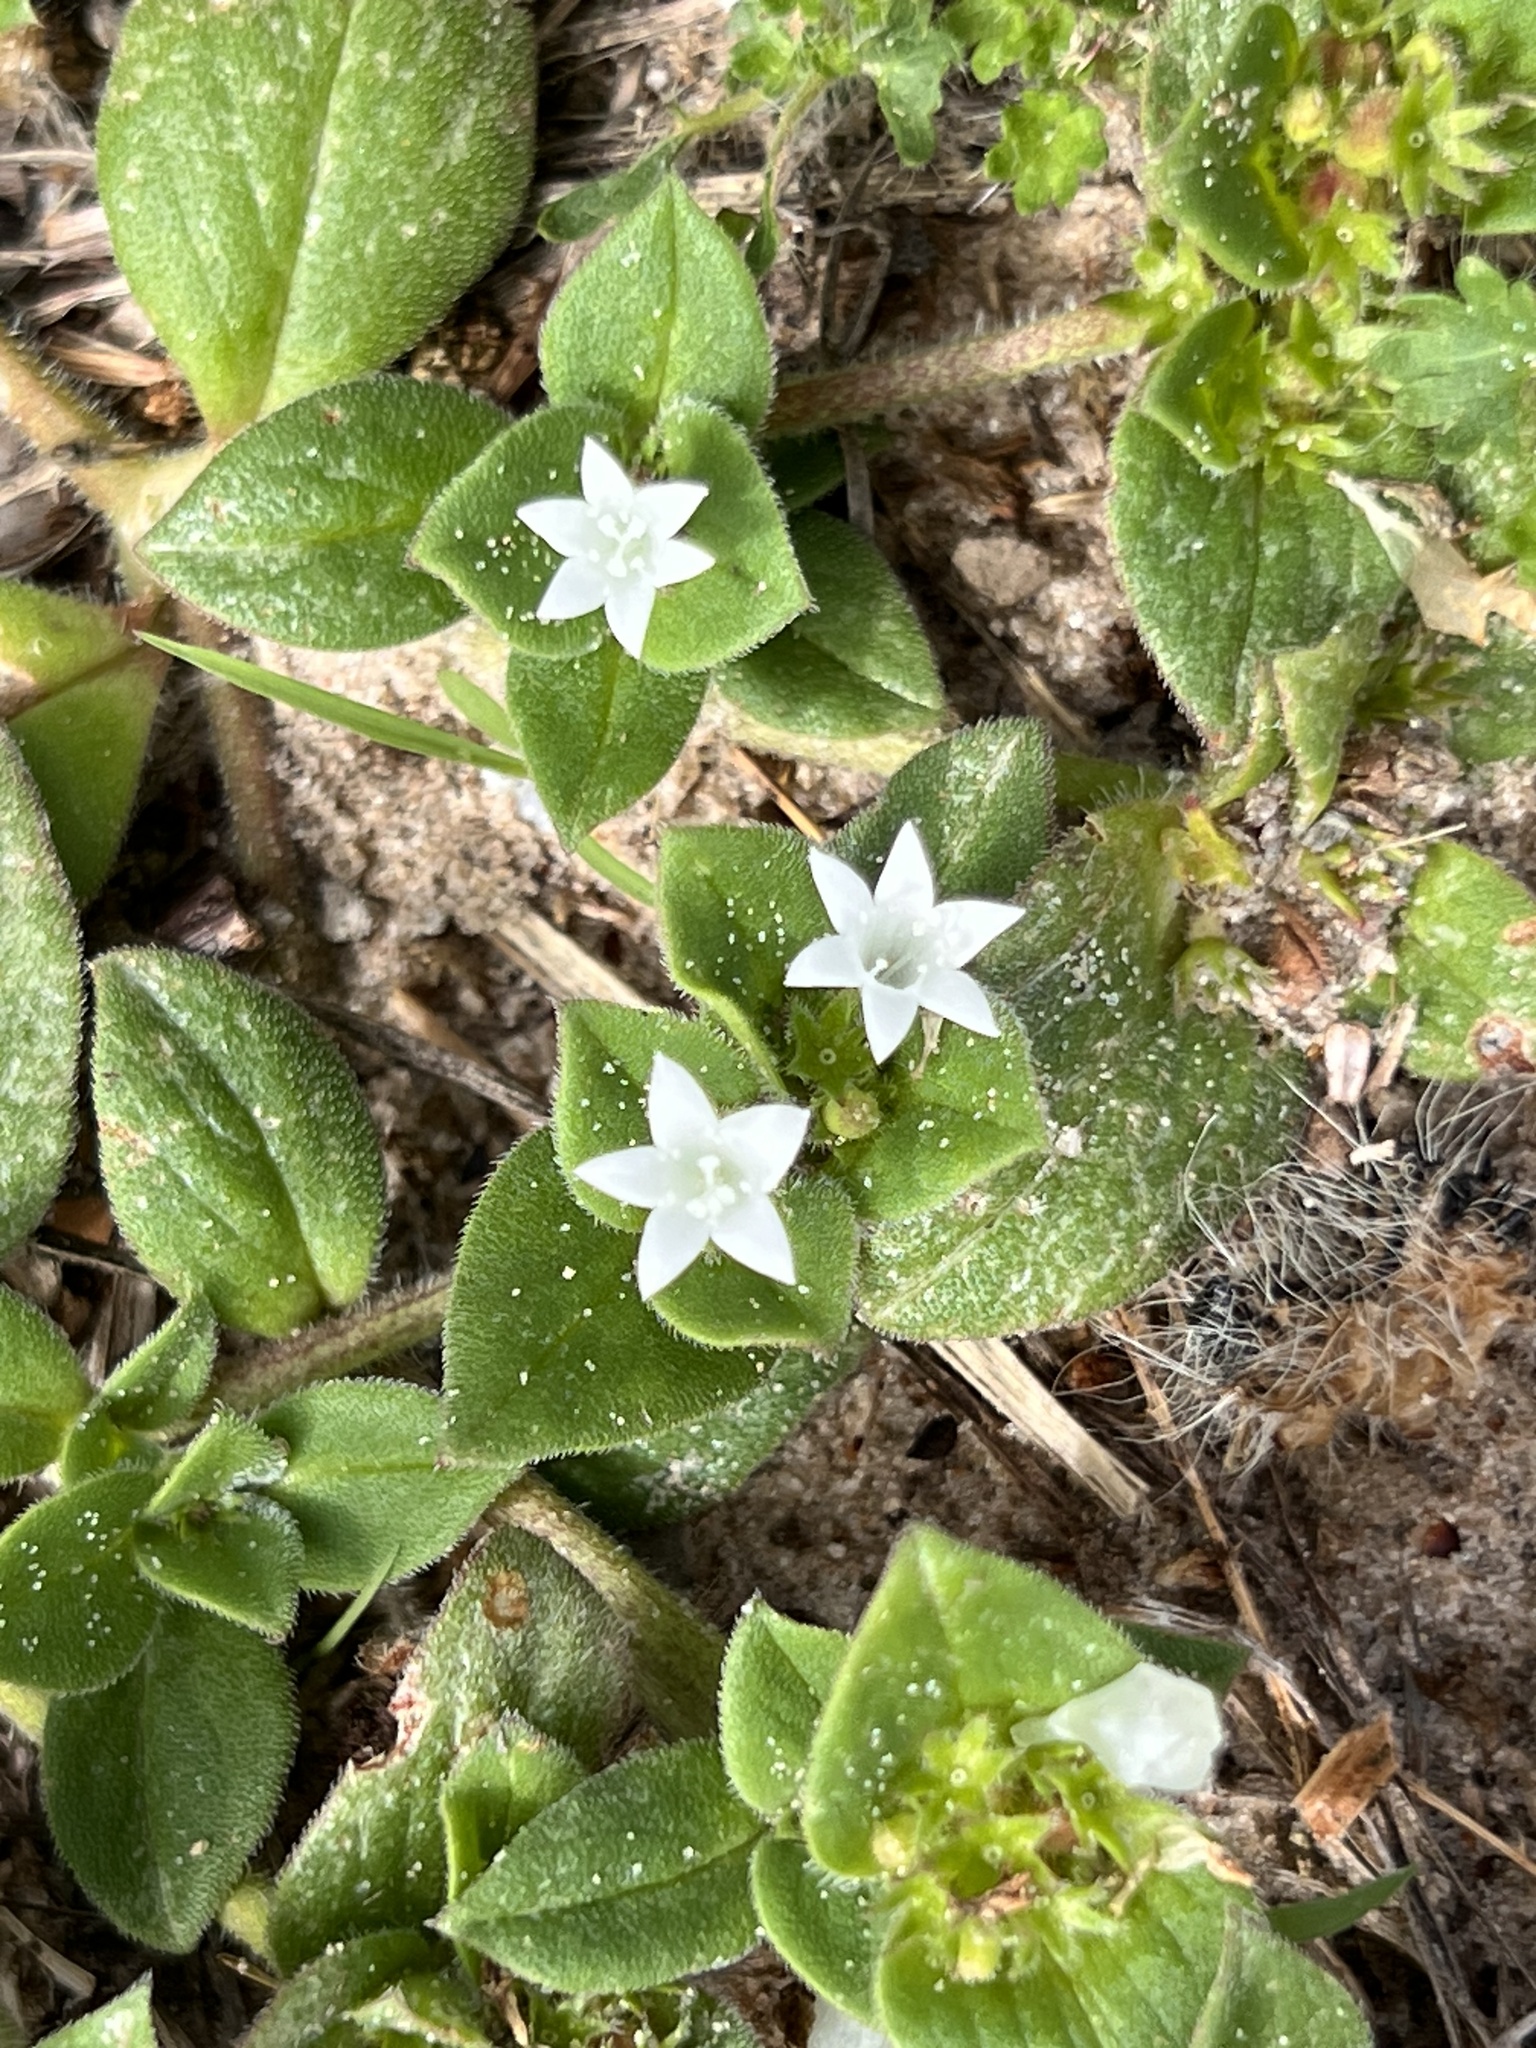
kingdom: Plantae
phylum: Tracheophyta
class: Magnoliopsida
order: Gentianales
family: Rubiaceae
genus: Richardia
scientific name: Richardia brasiliensis
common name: Tropical mexican clover
